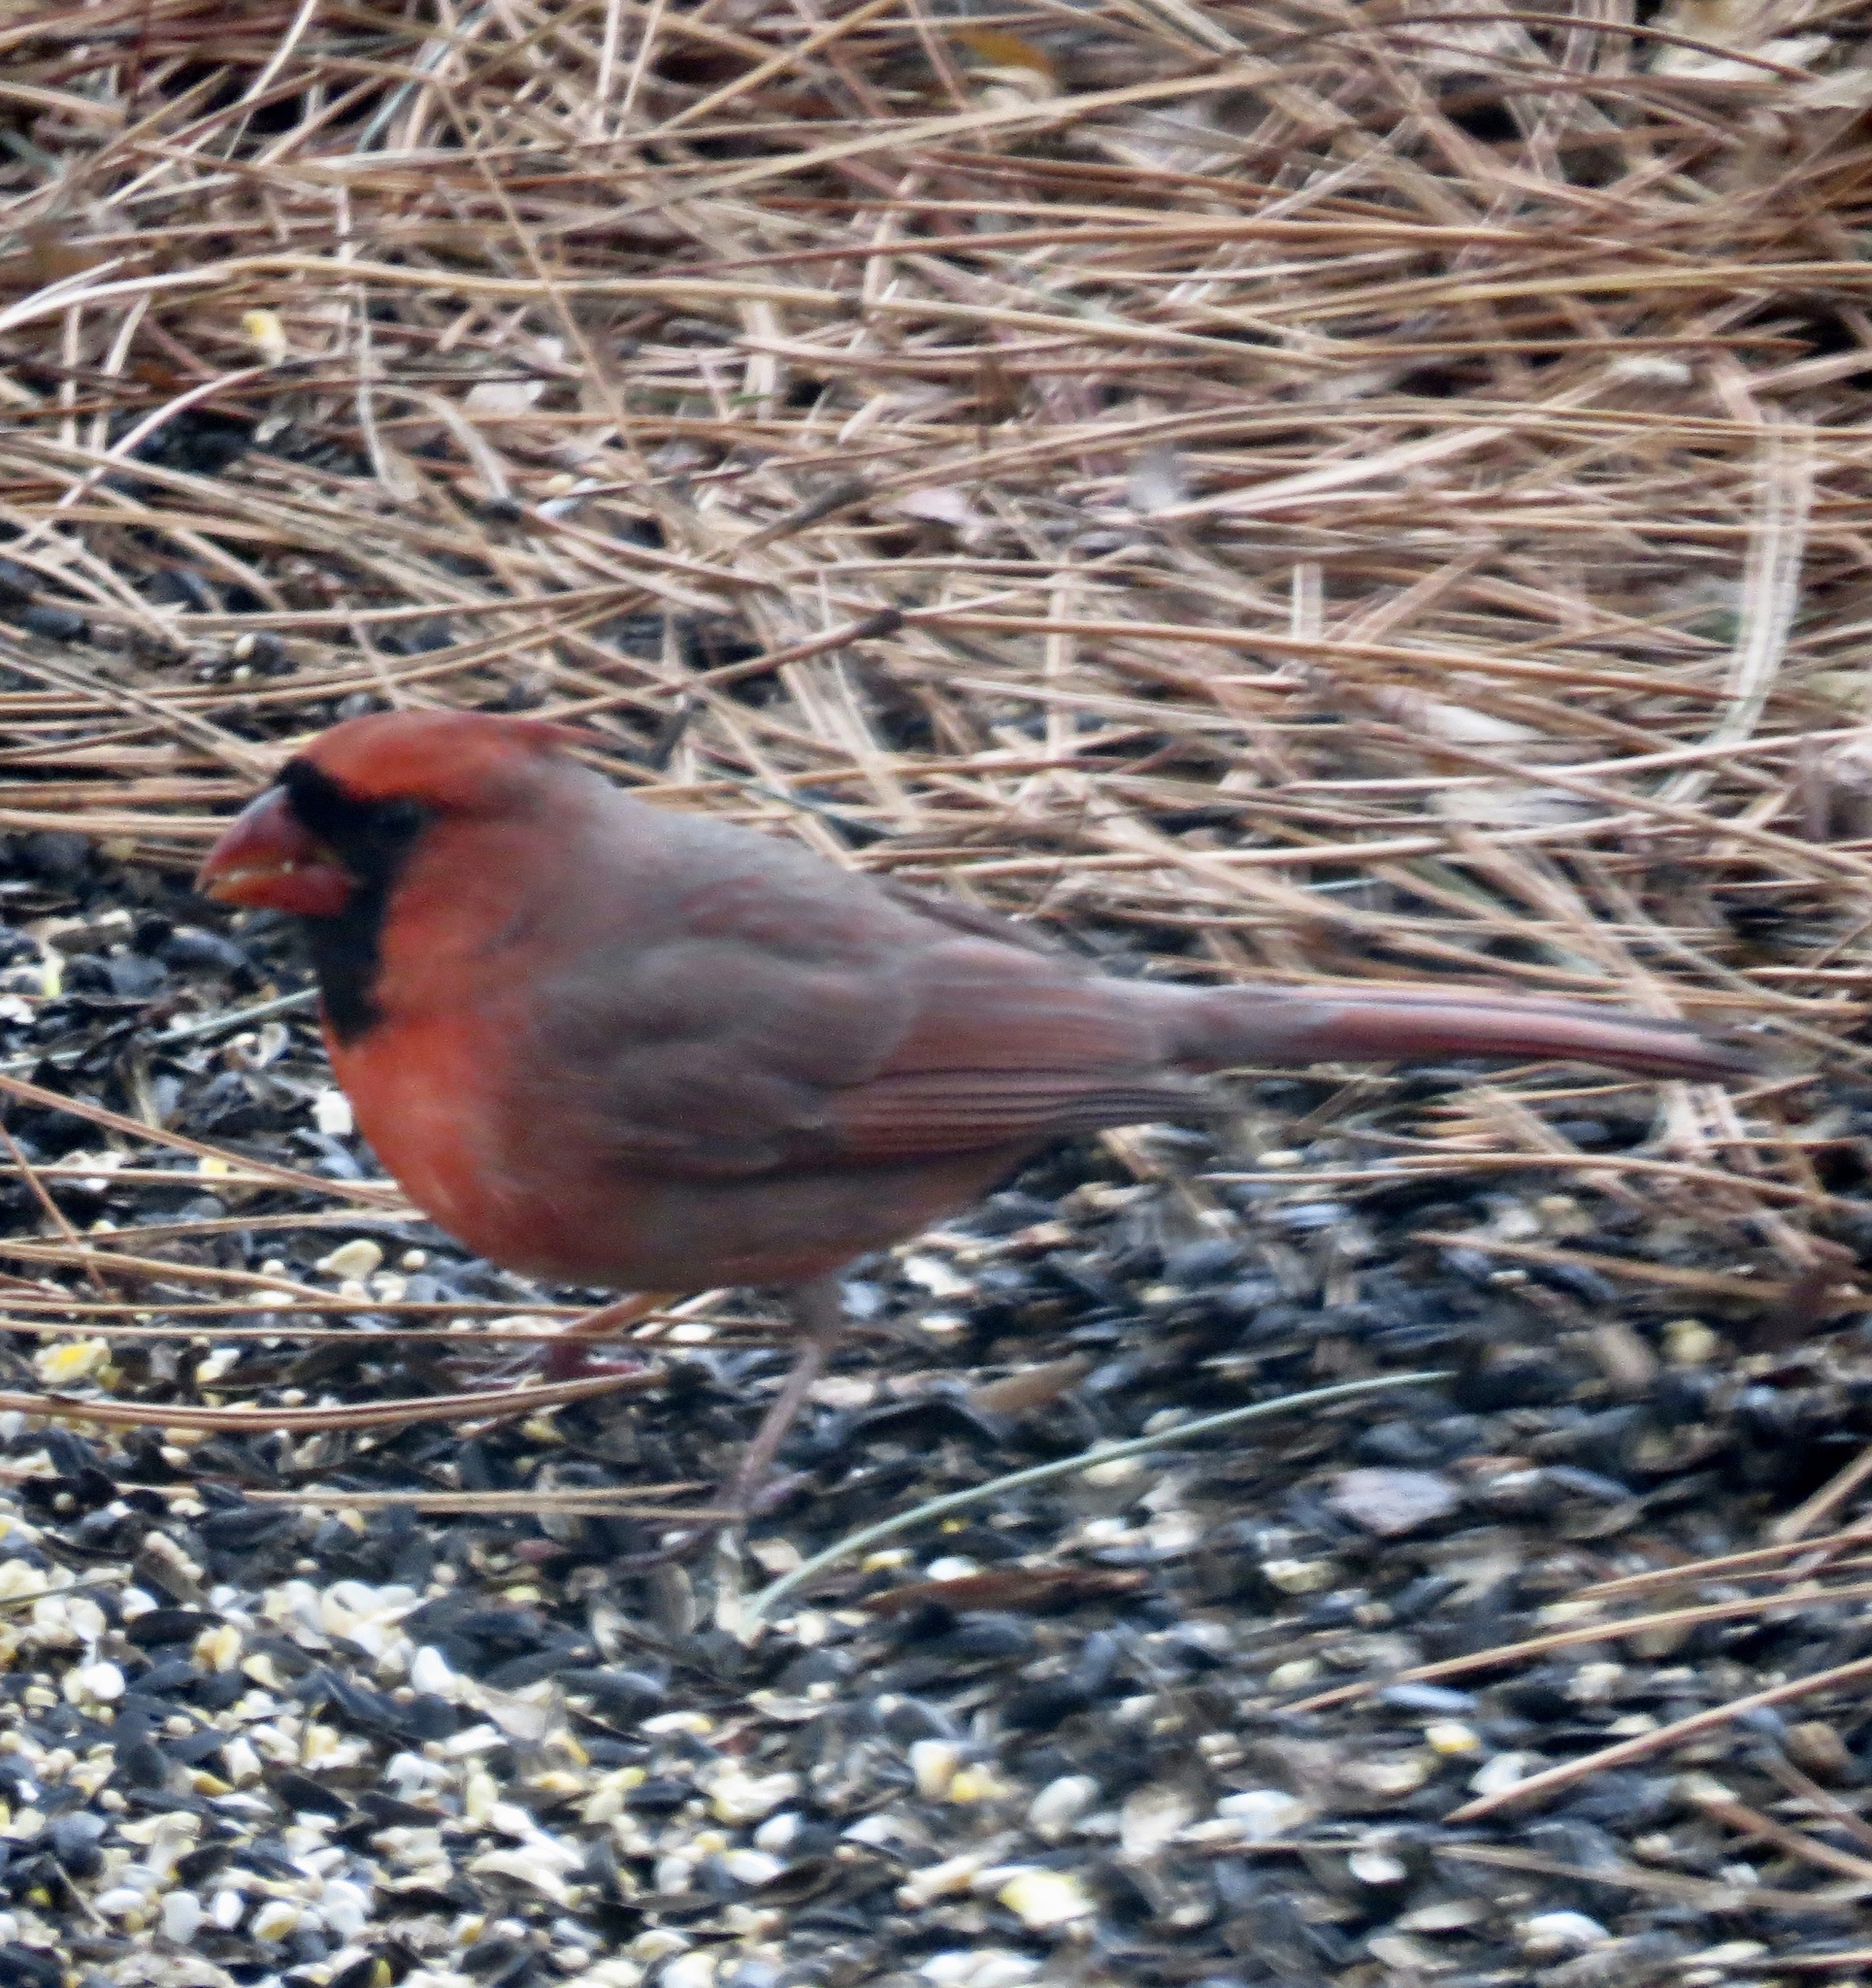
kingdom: Animalia
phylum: Chordata
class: Aves
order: Passeriformes
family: Cardinalidae
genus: Cardinalis
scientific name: Cardinalis cardinalis
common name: Northern cardinal
